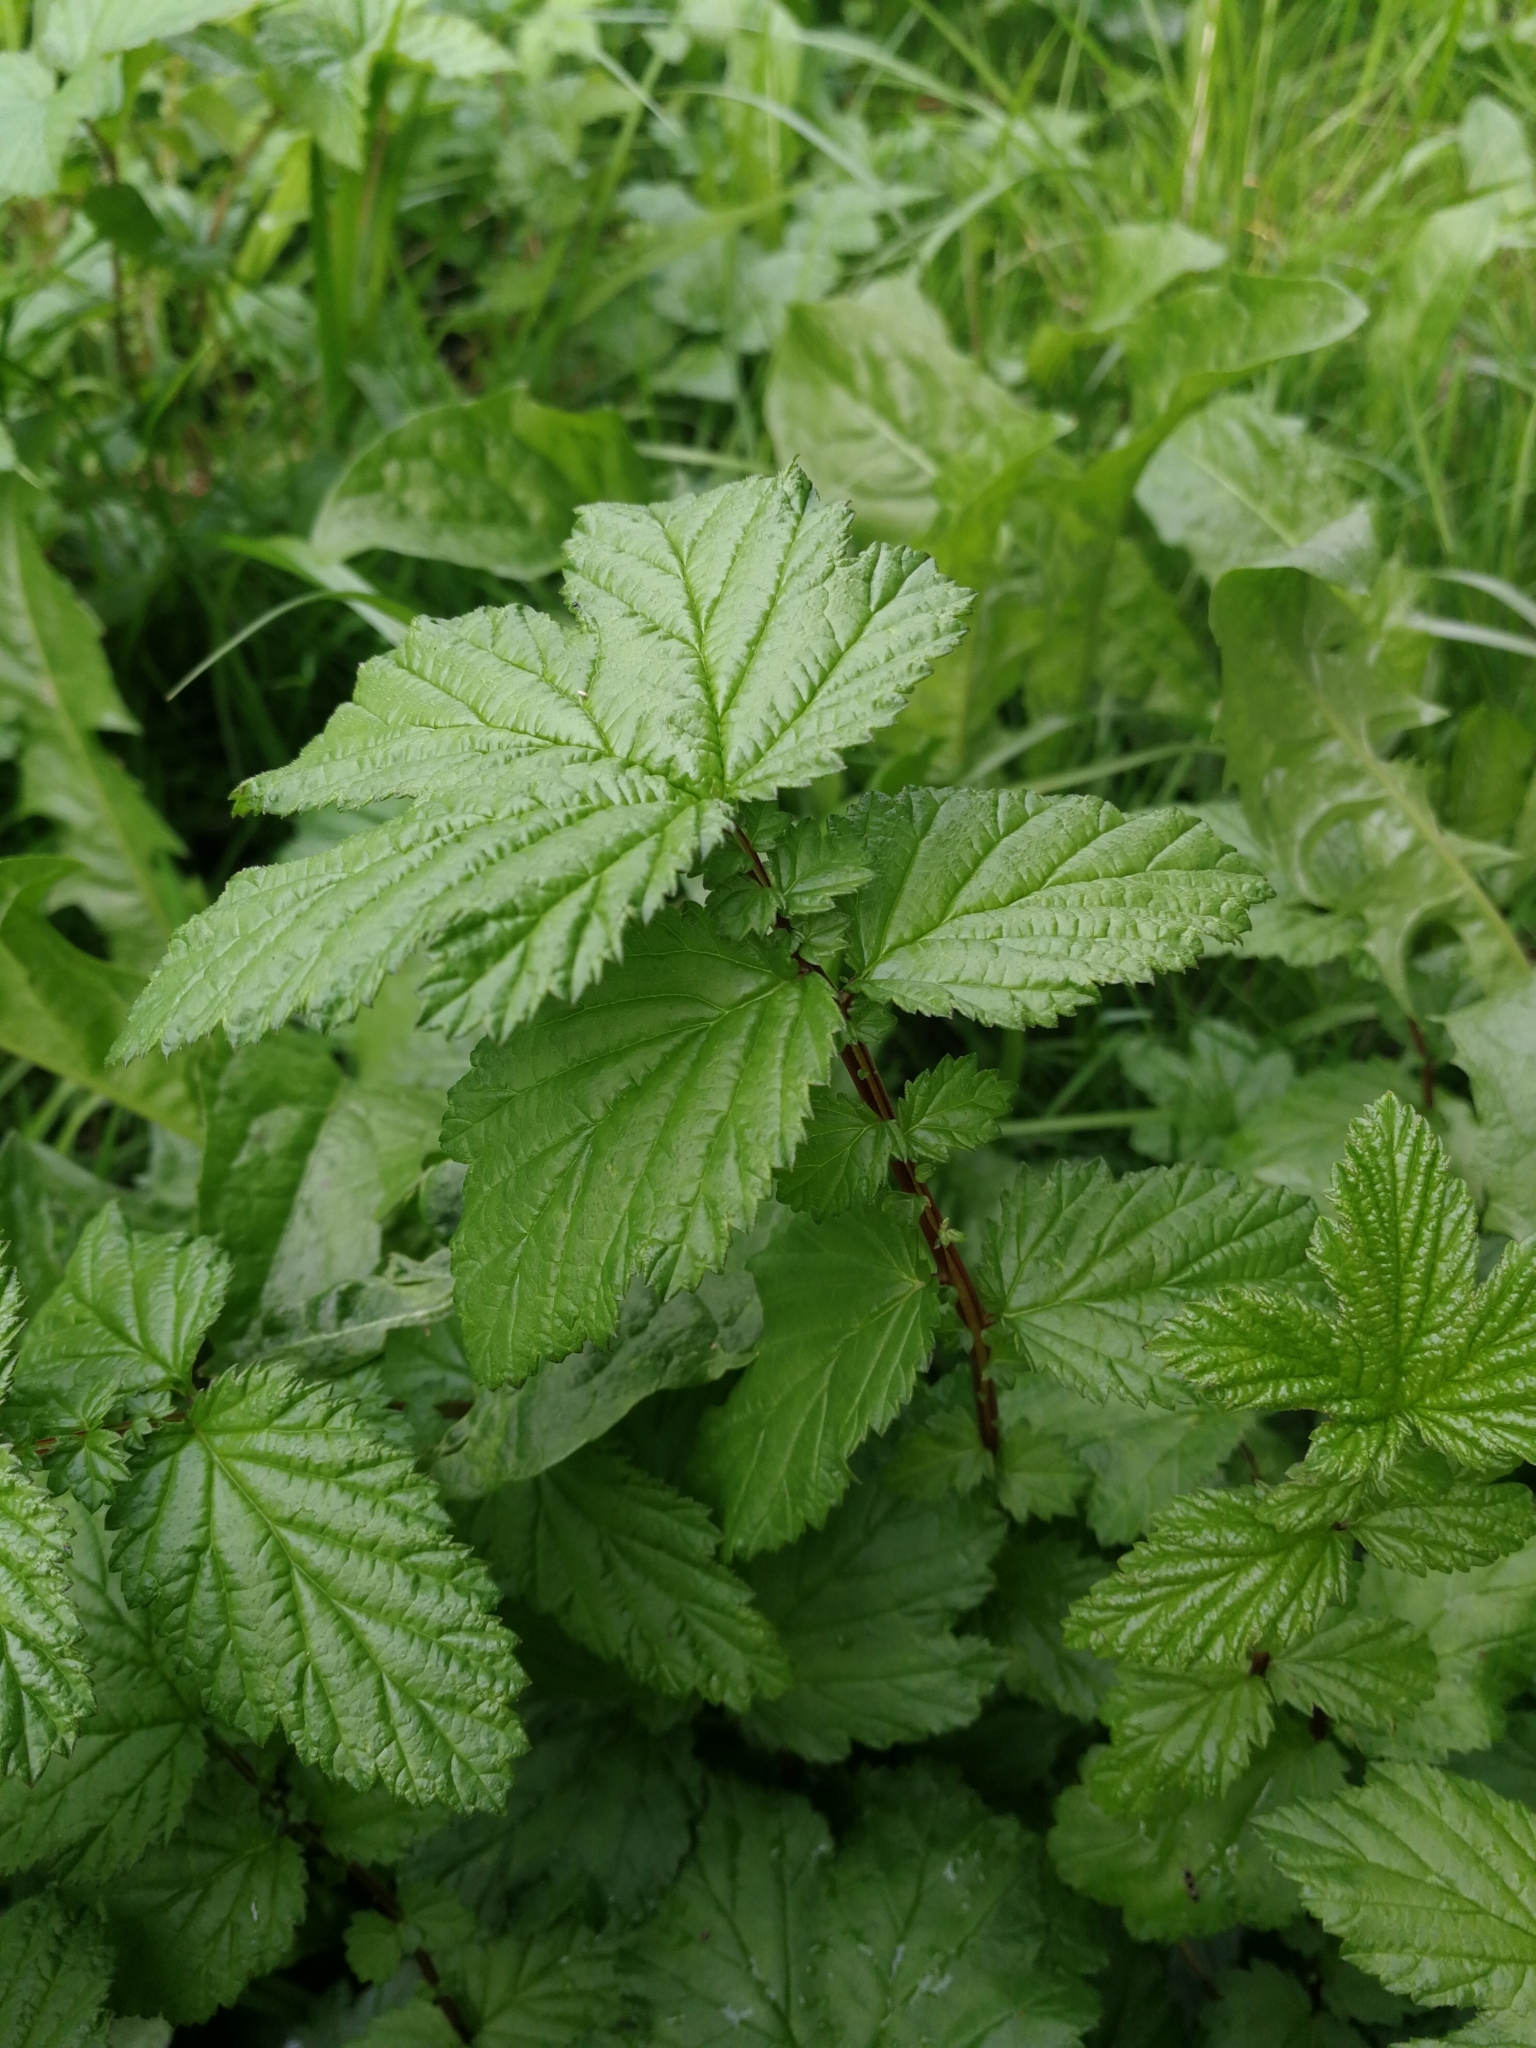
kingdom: Plantae
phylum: Tracheophyta
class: Magnoliopsida
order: Rosales
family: Rosaceae
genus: Filipendula
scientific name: Filipendula ulmaria
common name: Meadowsweet
